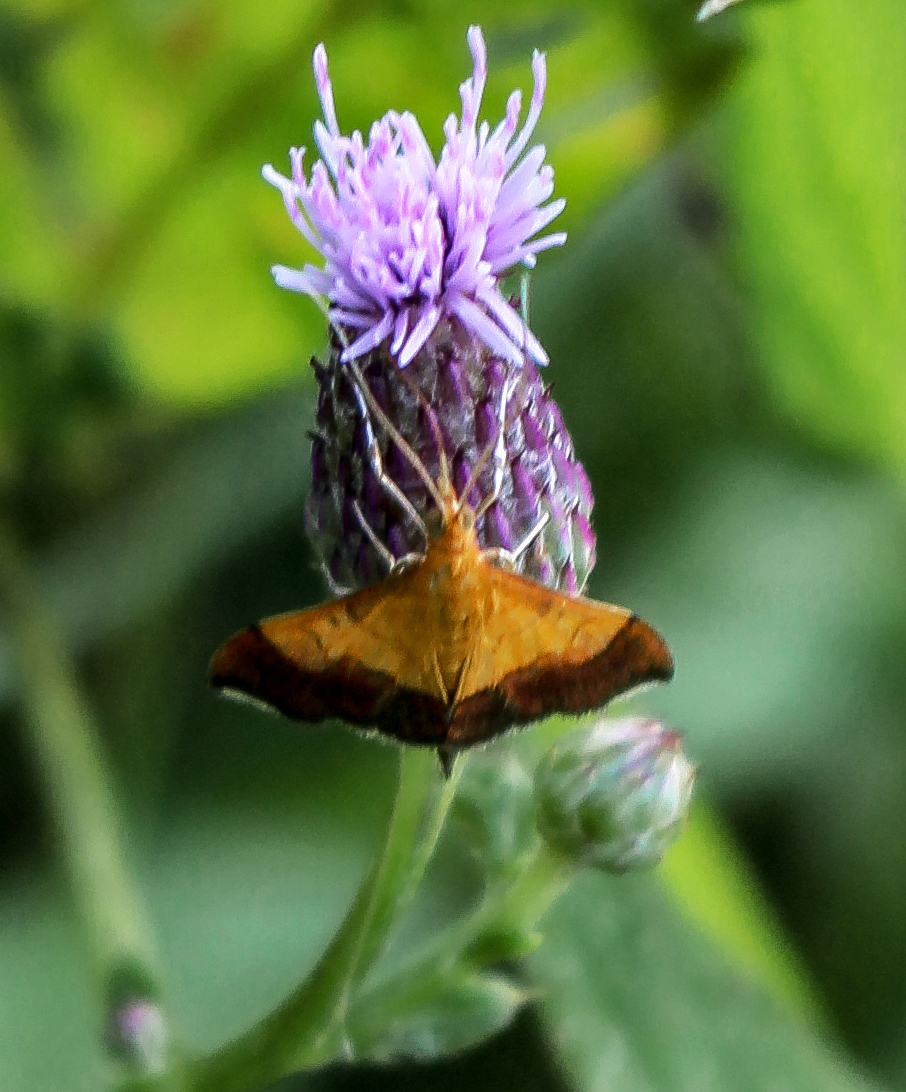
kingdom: Animalia
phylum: Arthropoda
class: Insecta
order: Lepidoptera
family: Crambidae
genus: Pyrausta
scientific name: Pyrausta bicoloralis
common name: Bicolored pyrausta moth
